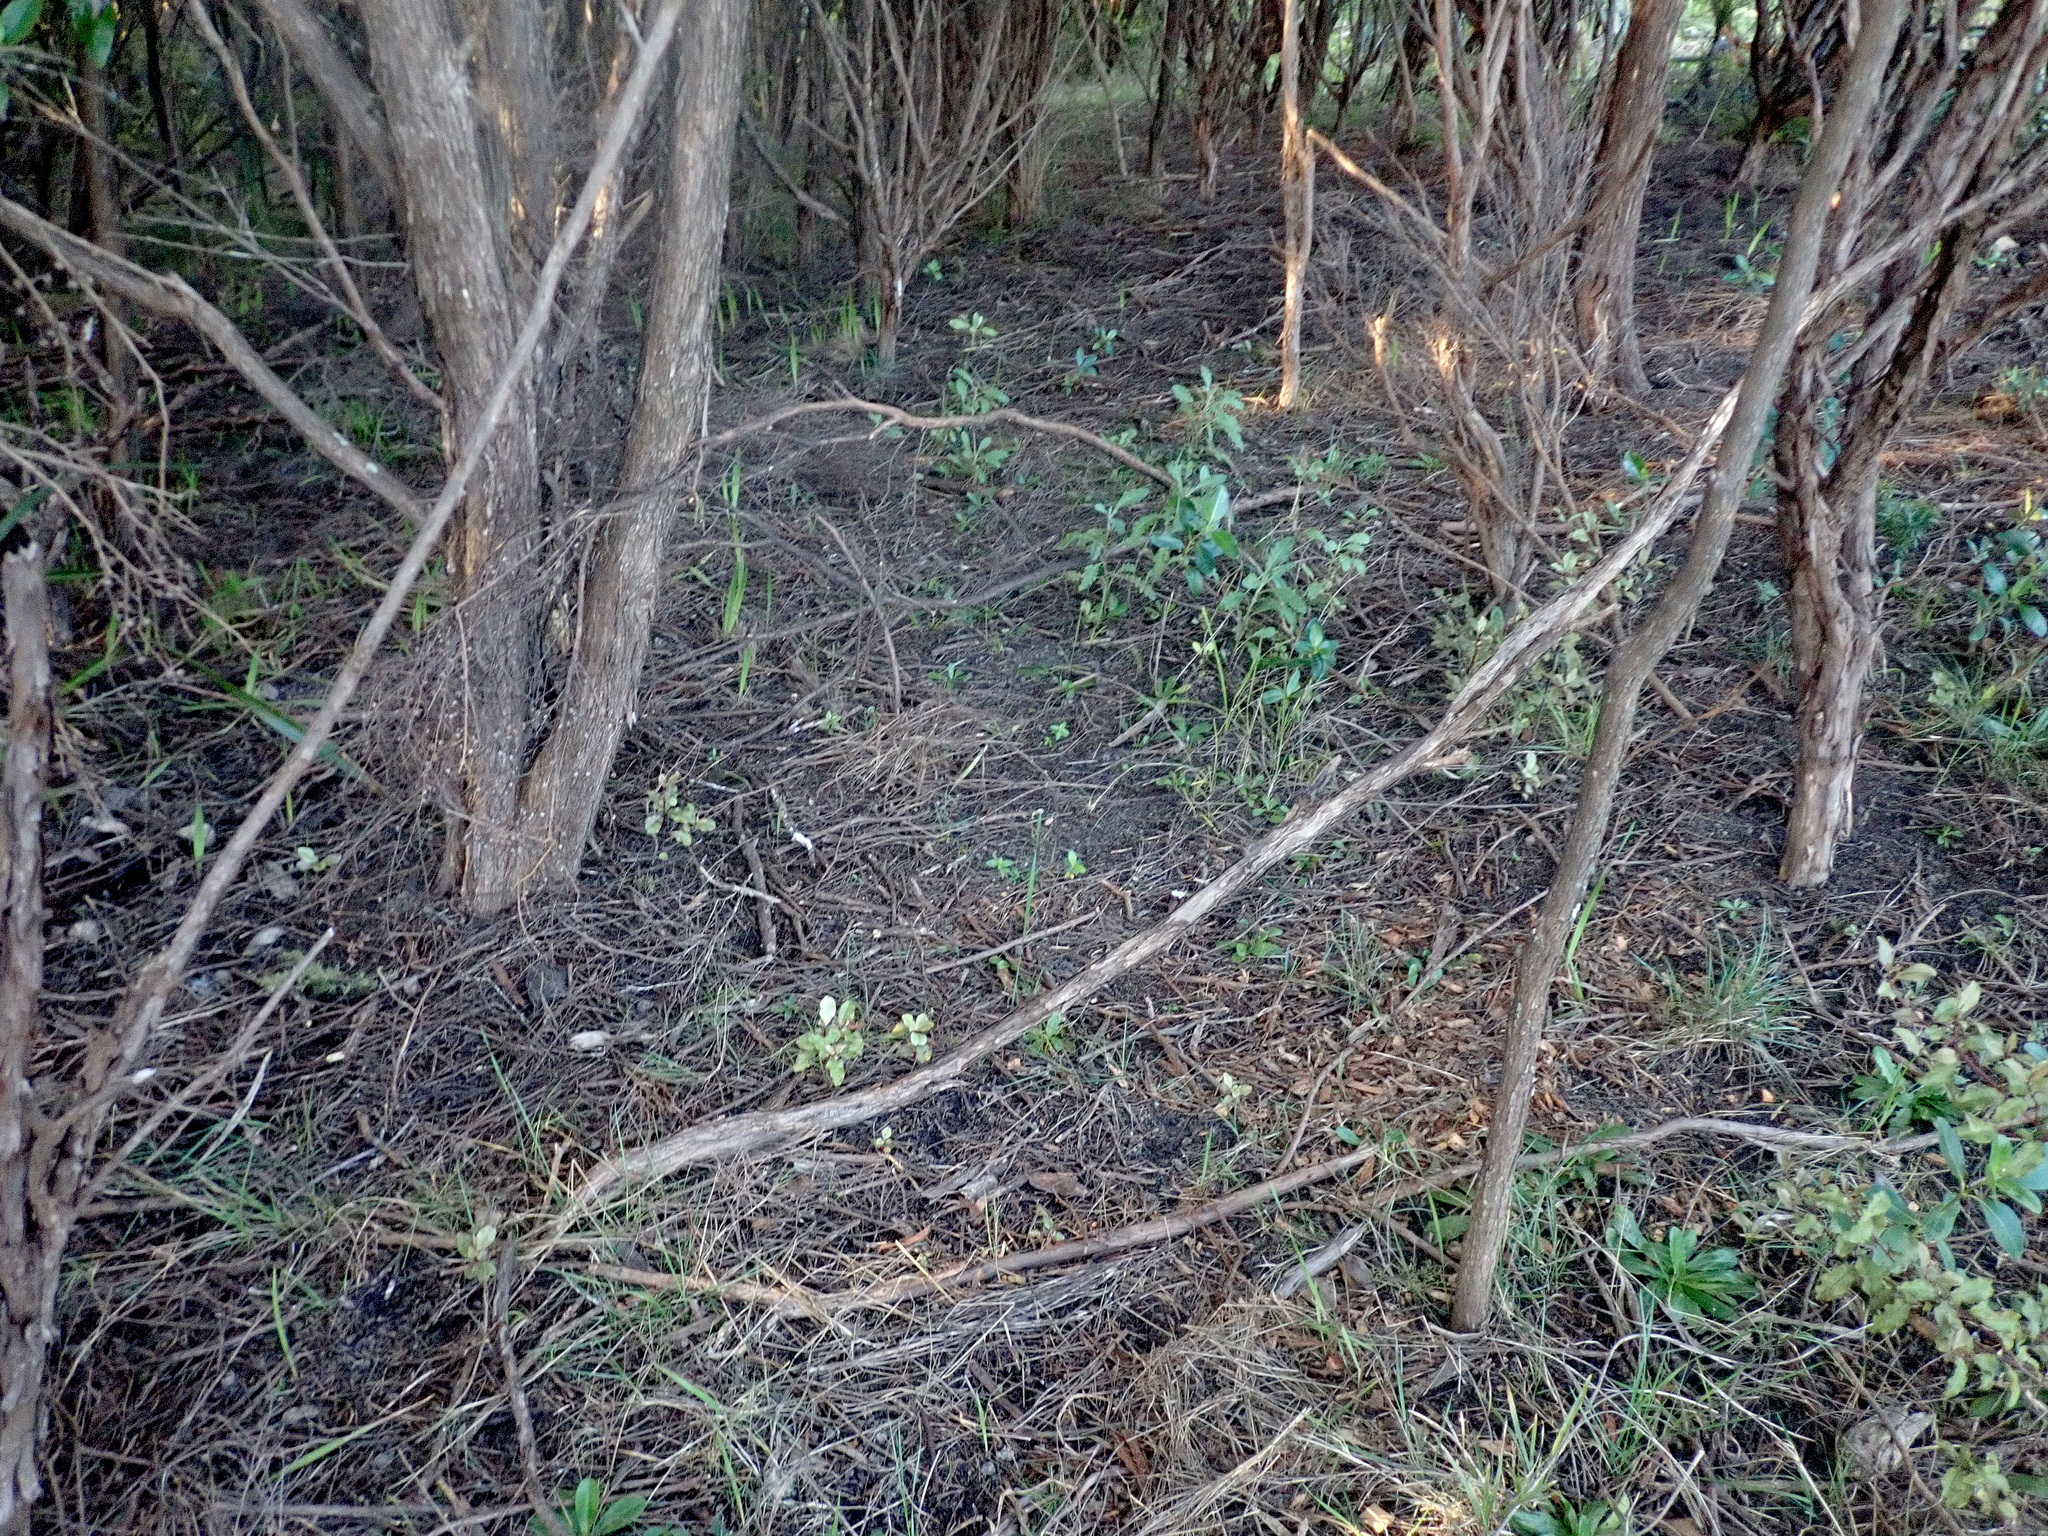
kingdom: Plantae
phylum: Tracheophyta
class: Magnoliopsida
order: Ericales
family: Primulaceae
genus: Myrsine
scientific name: Myrsine australis
